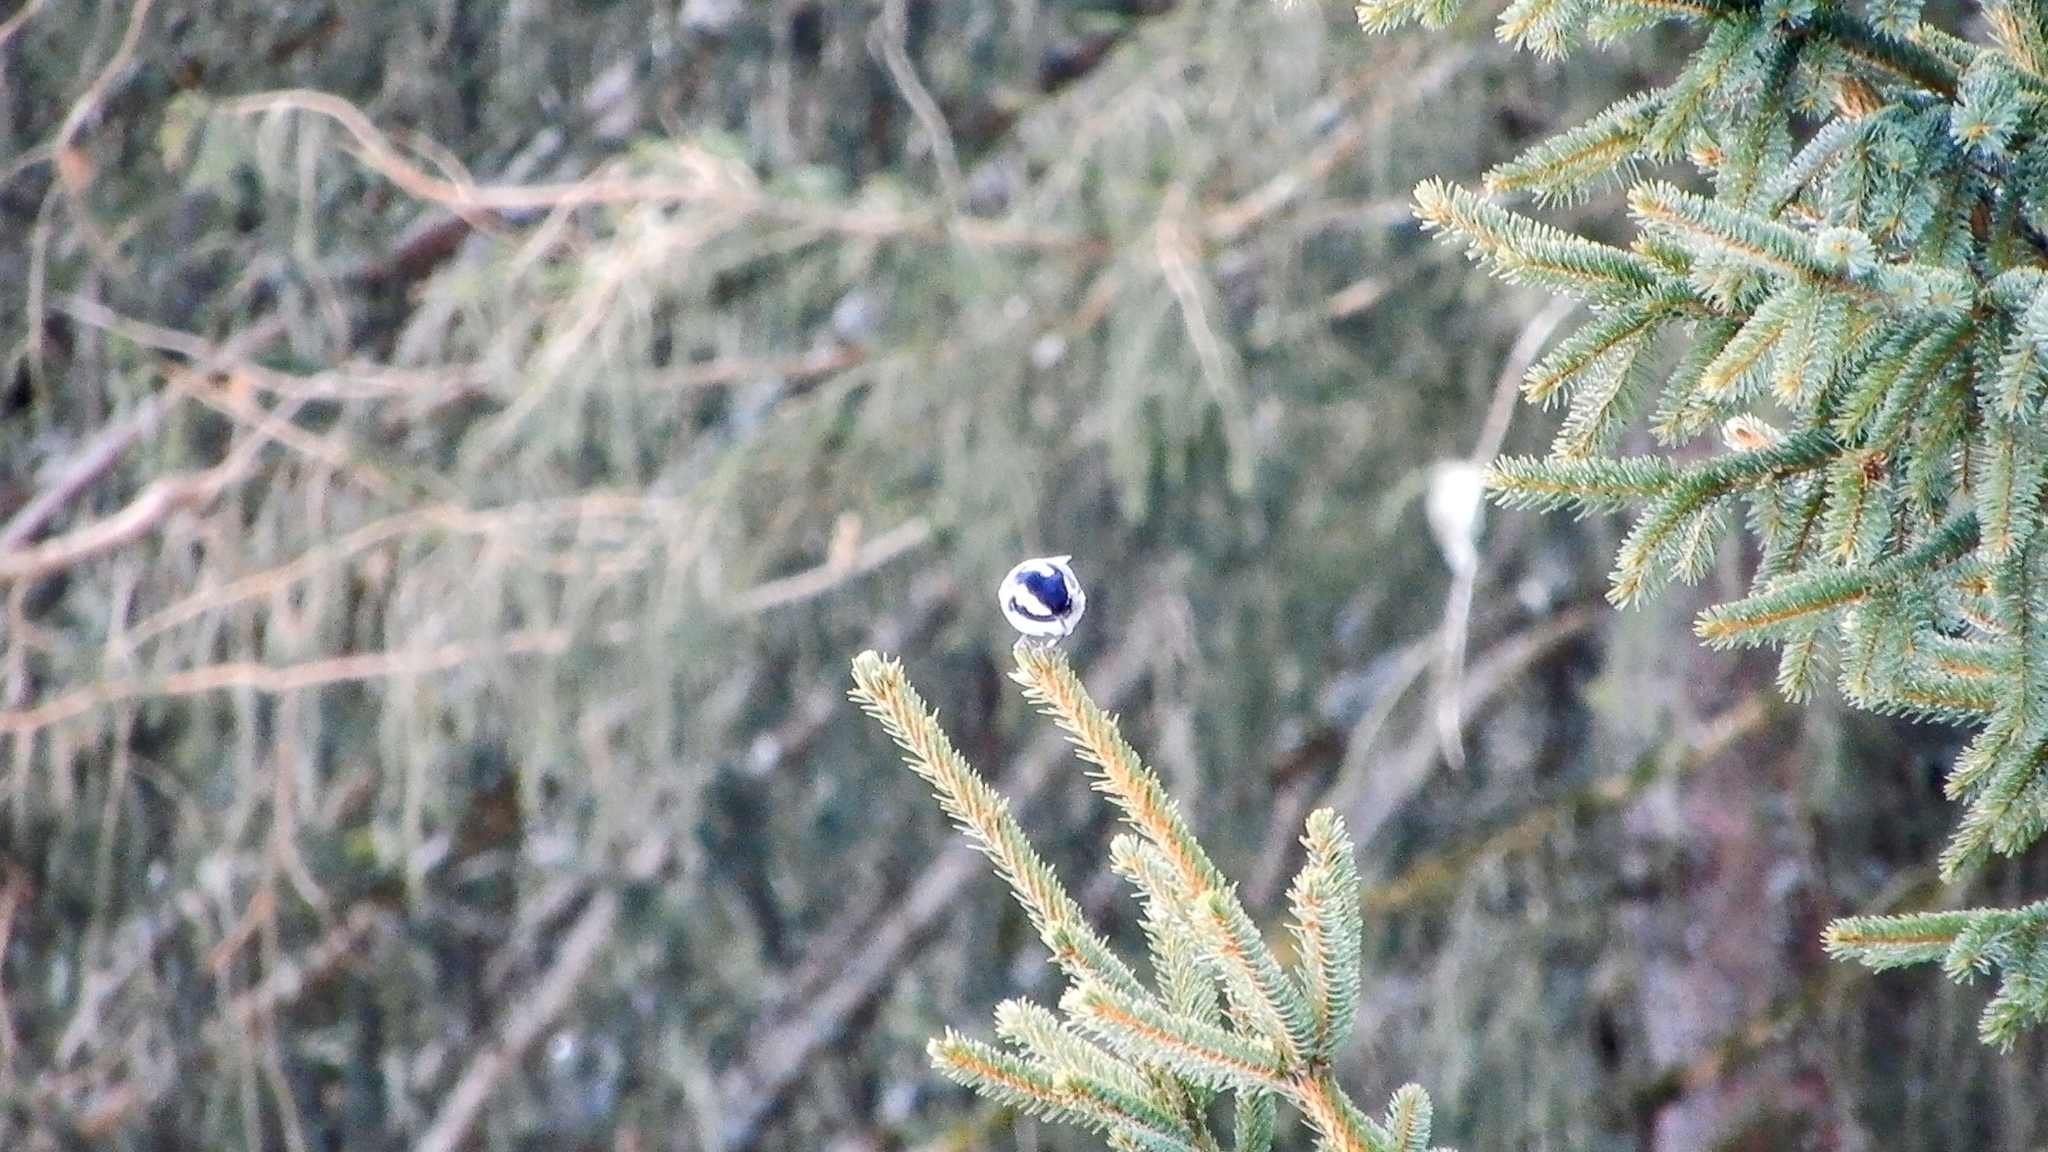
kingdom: Animalia
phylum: Chordata
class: Aves
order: Passeriformes
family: Paridae
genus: Periparus
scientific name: Periparus ater
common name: Coal tit
